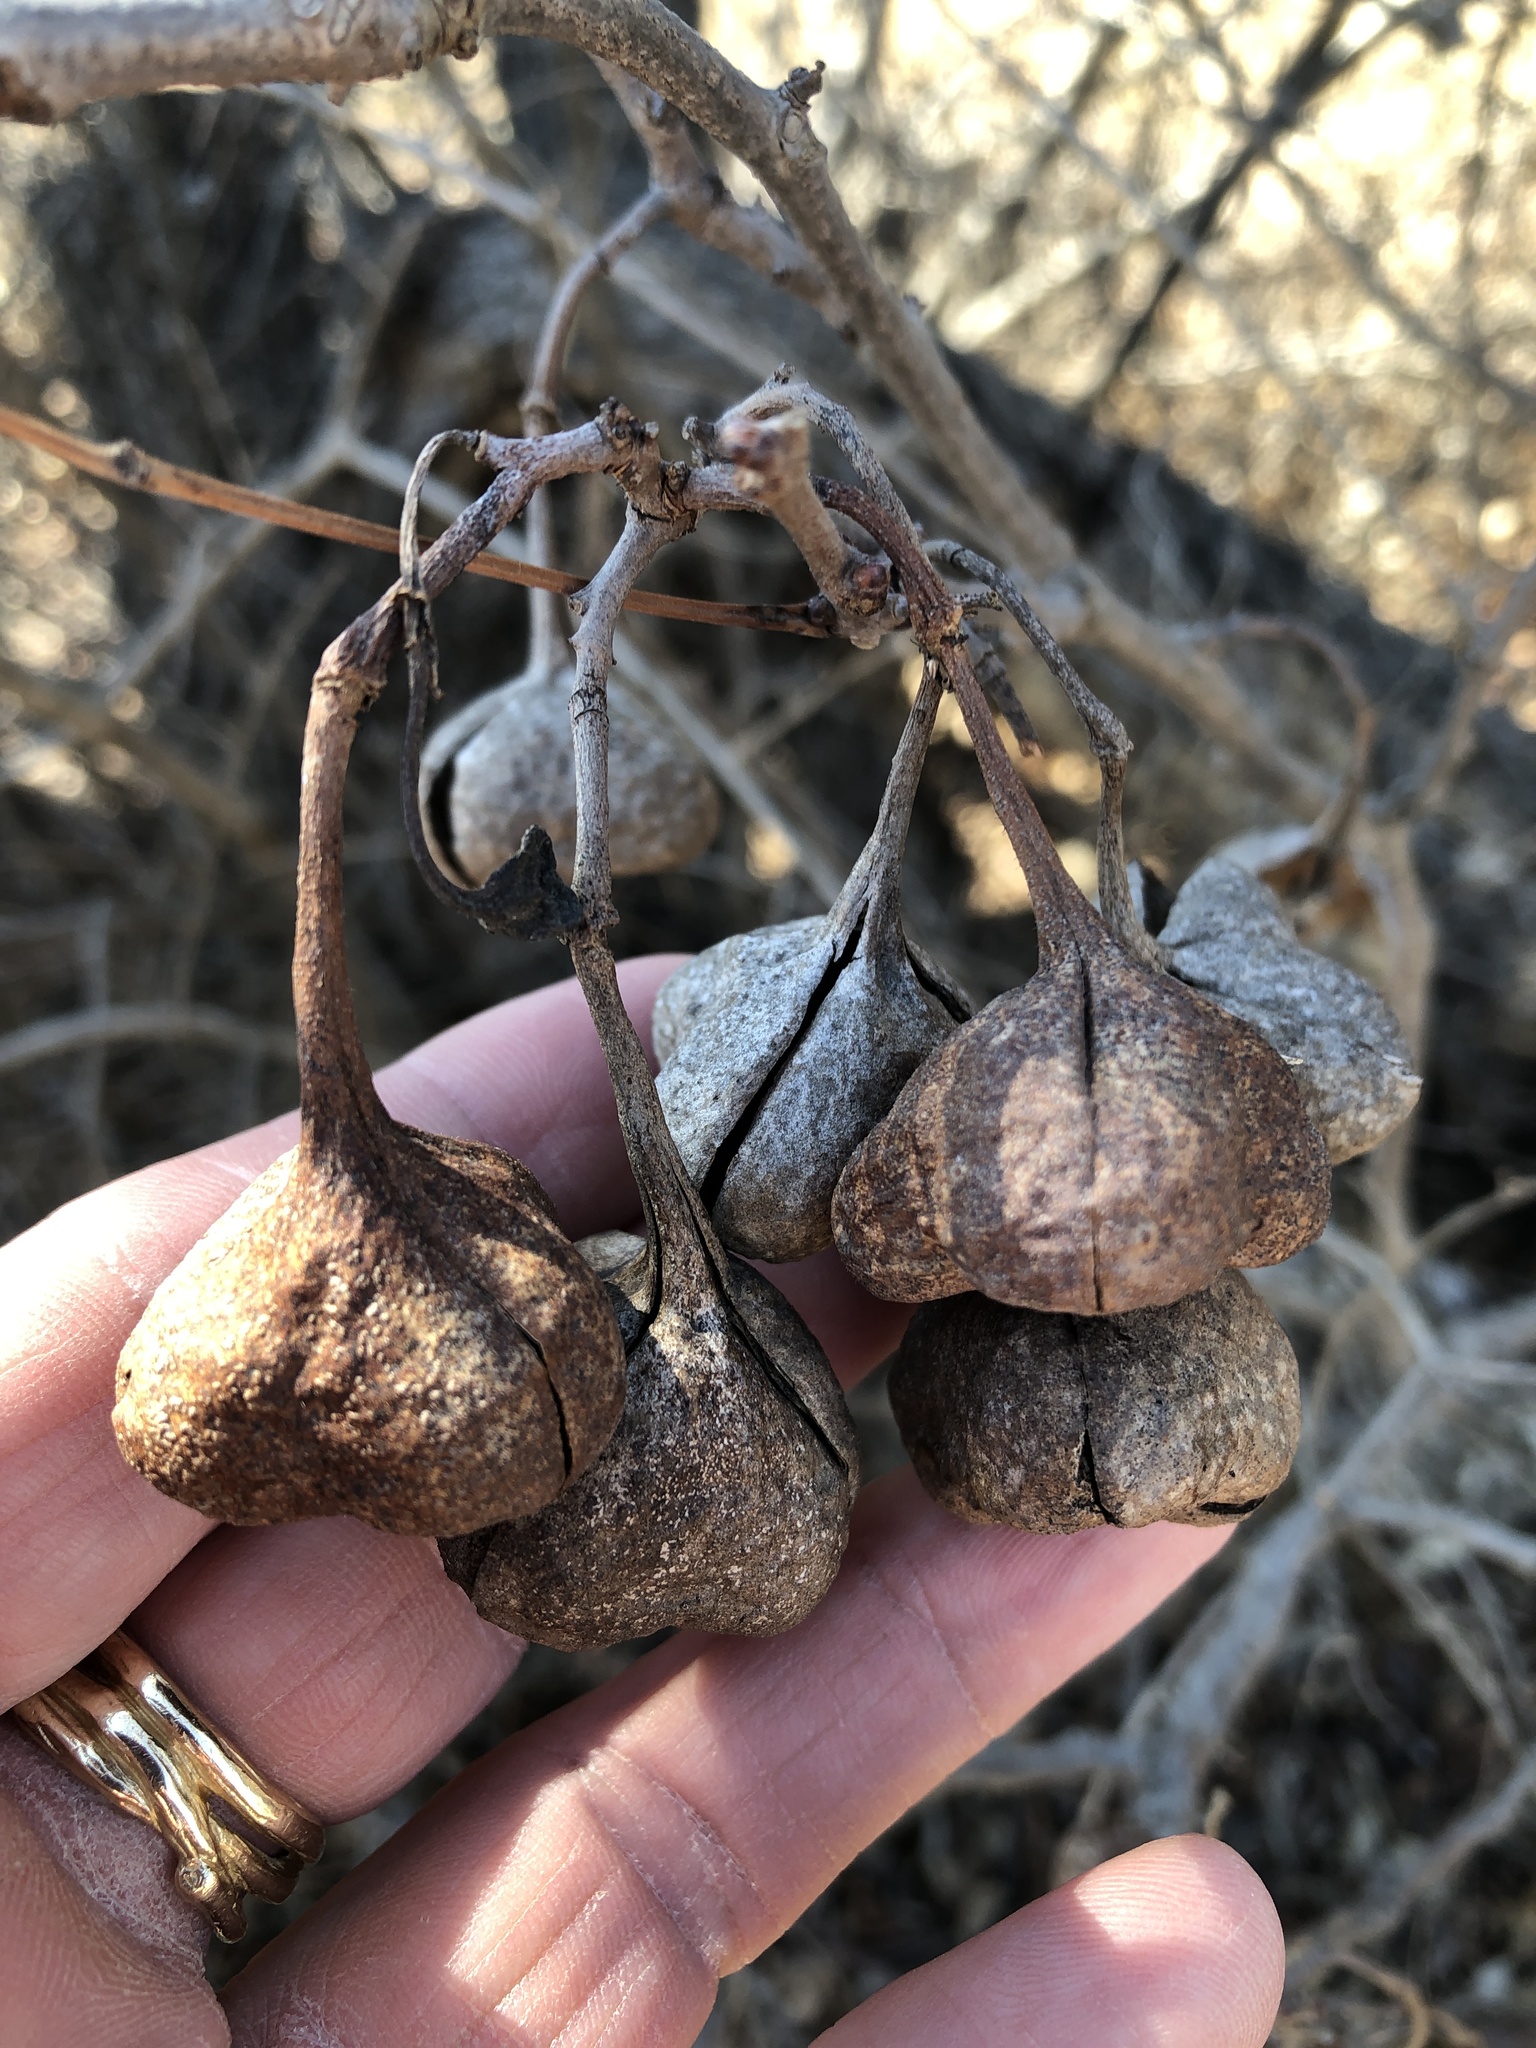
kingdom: Plantae
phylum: Tracheophyta
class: Magnoliopsida
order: Sapindales
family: Sapindaceae
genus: Ungnadia
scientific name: Ungnadia speciosa
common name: Texas-buckeye
